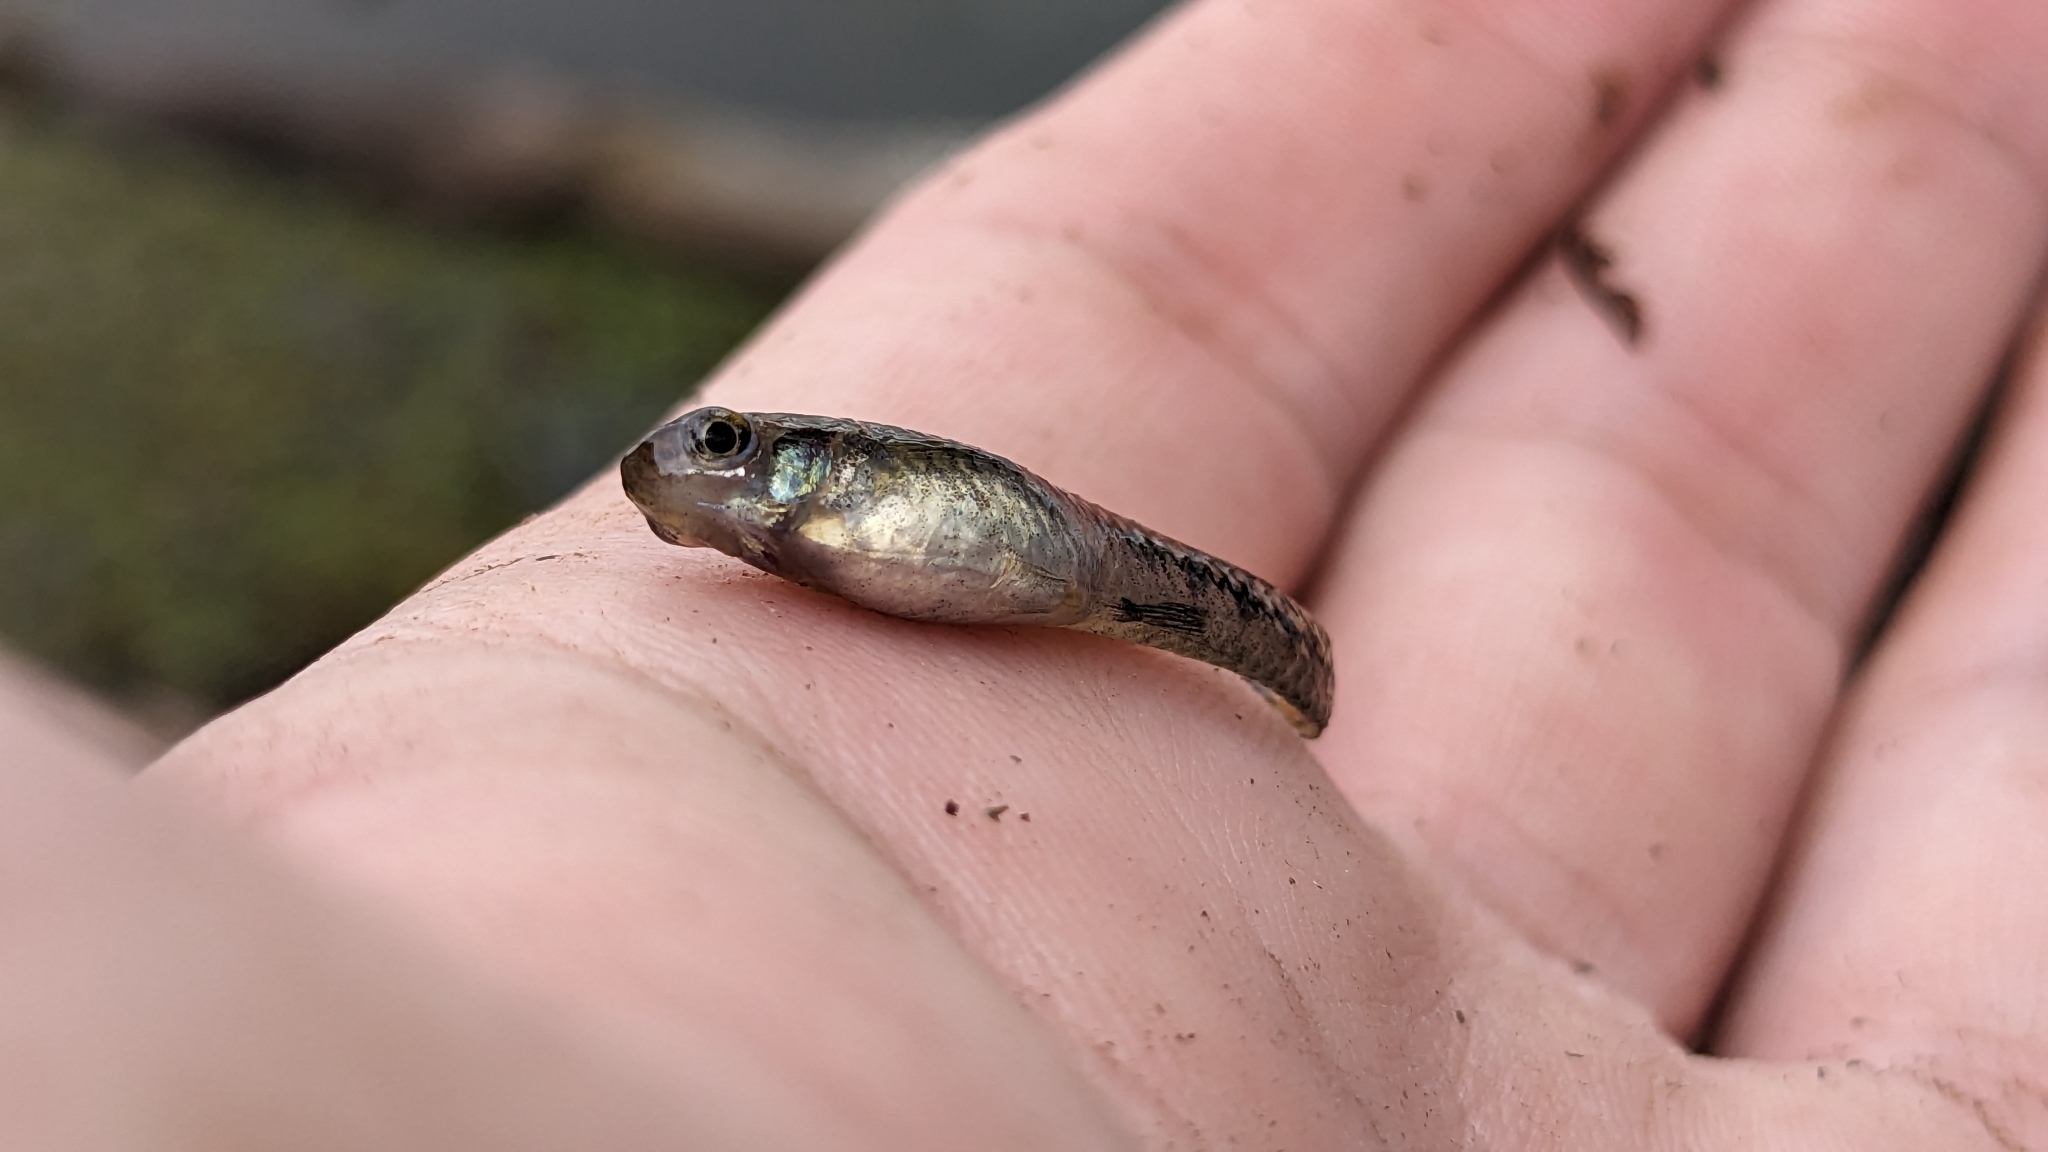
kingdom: Animalia
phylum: Chordata
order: Cyprinodontiformes
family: Poeciliidae
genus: Heterandria
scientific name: Heterandria formosa
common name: Least killifish
